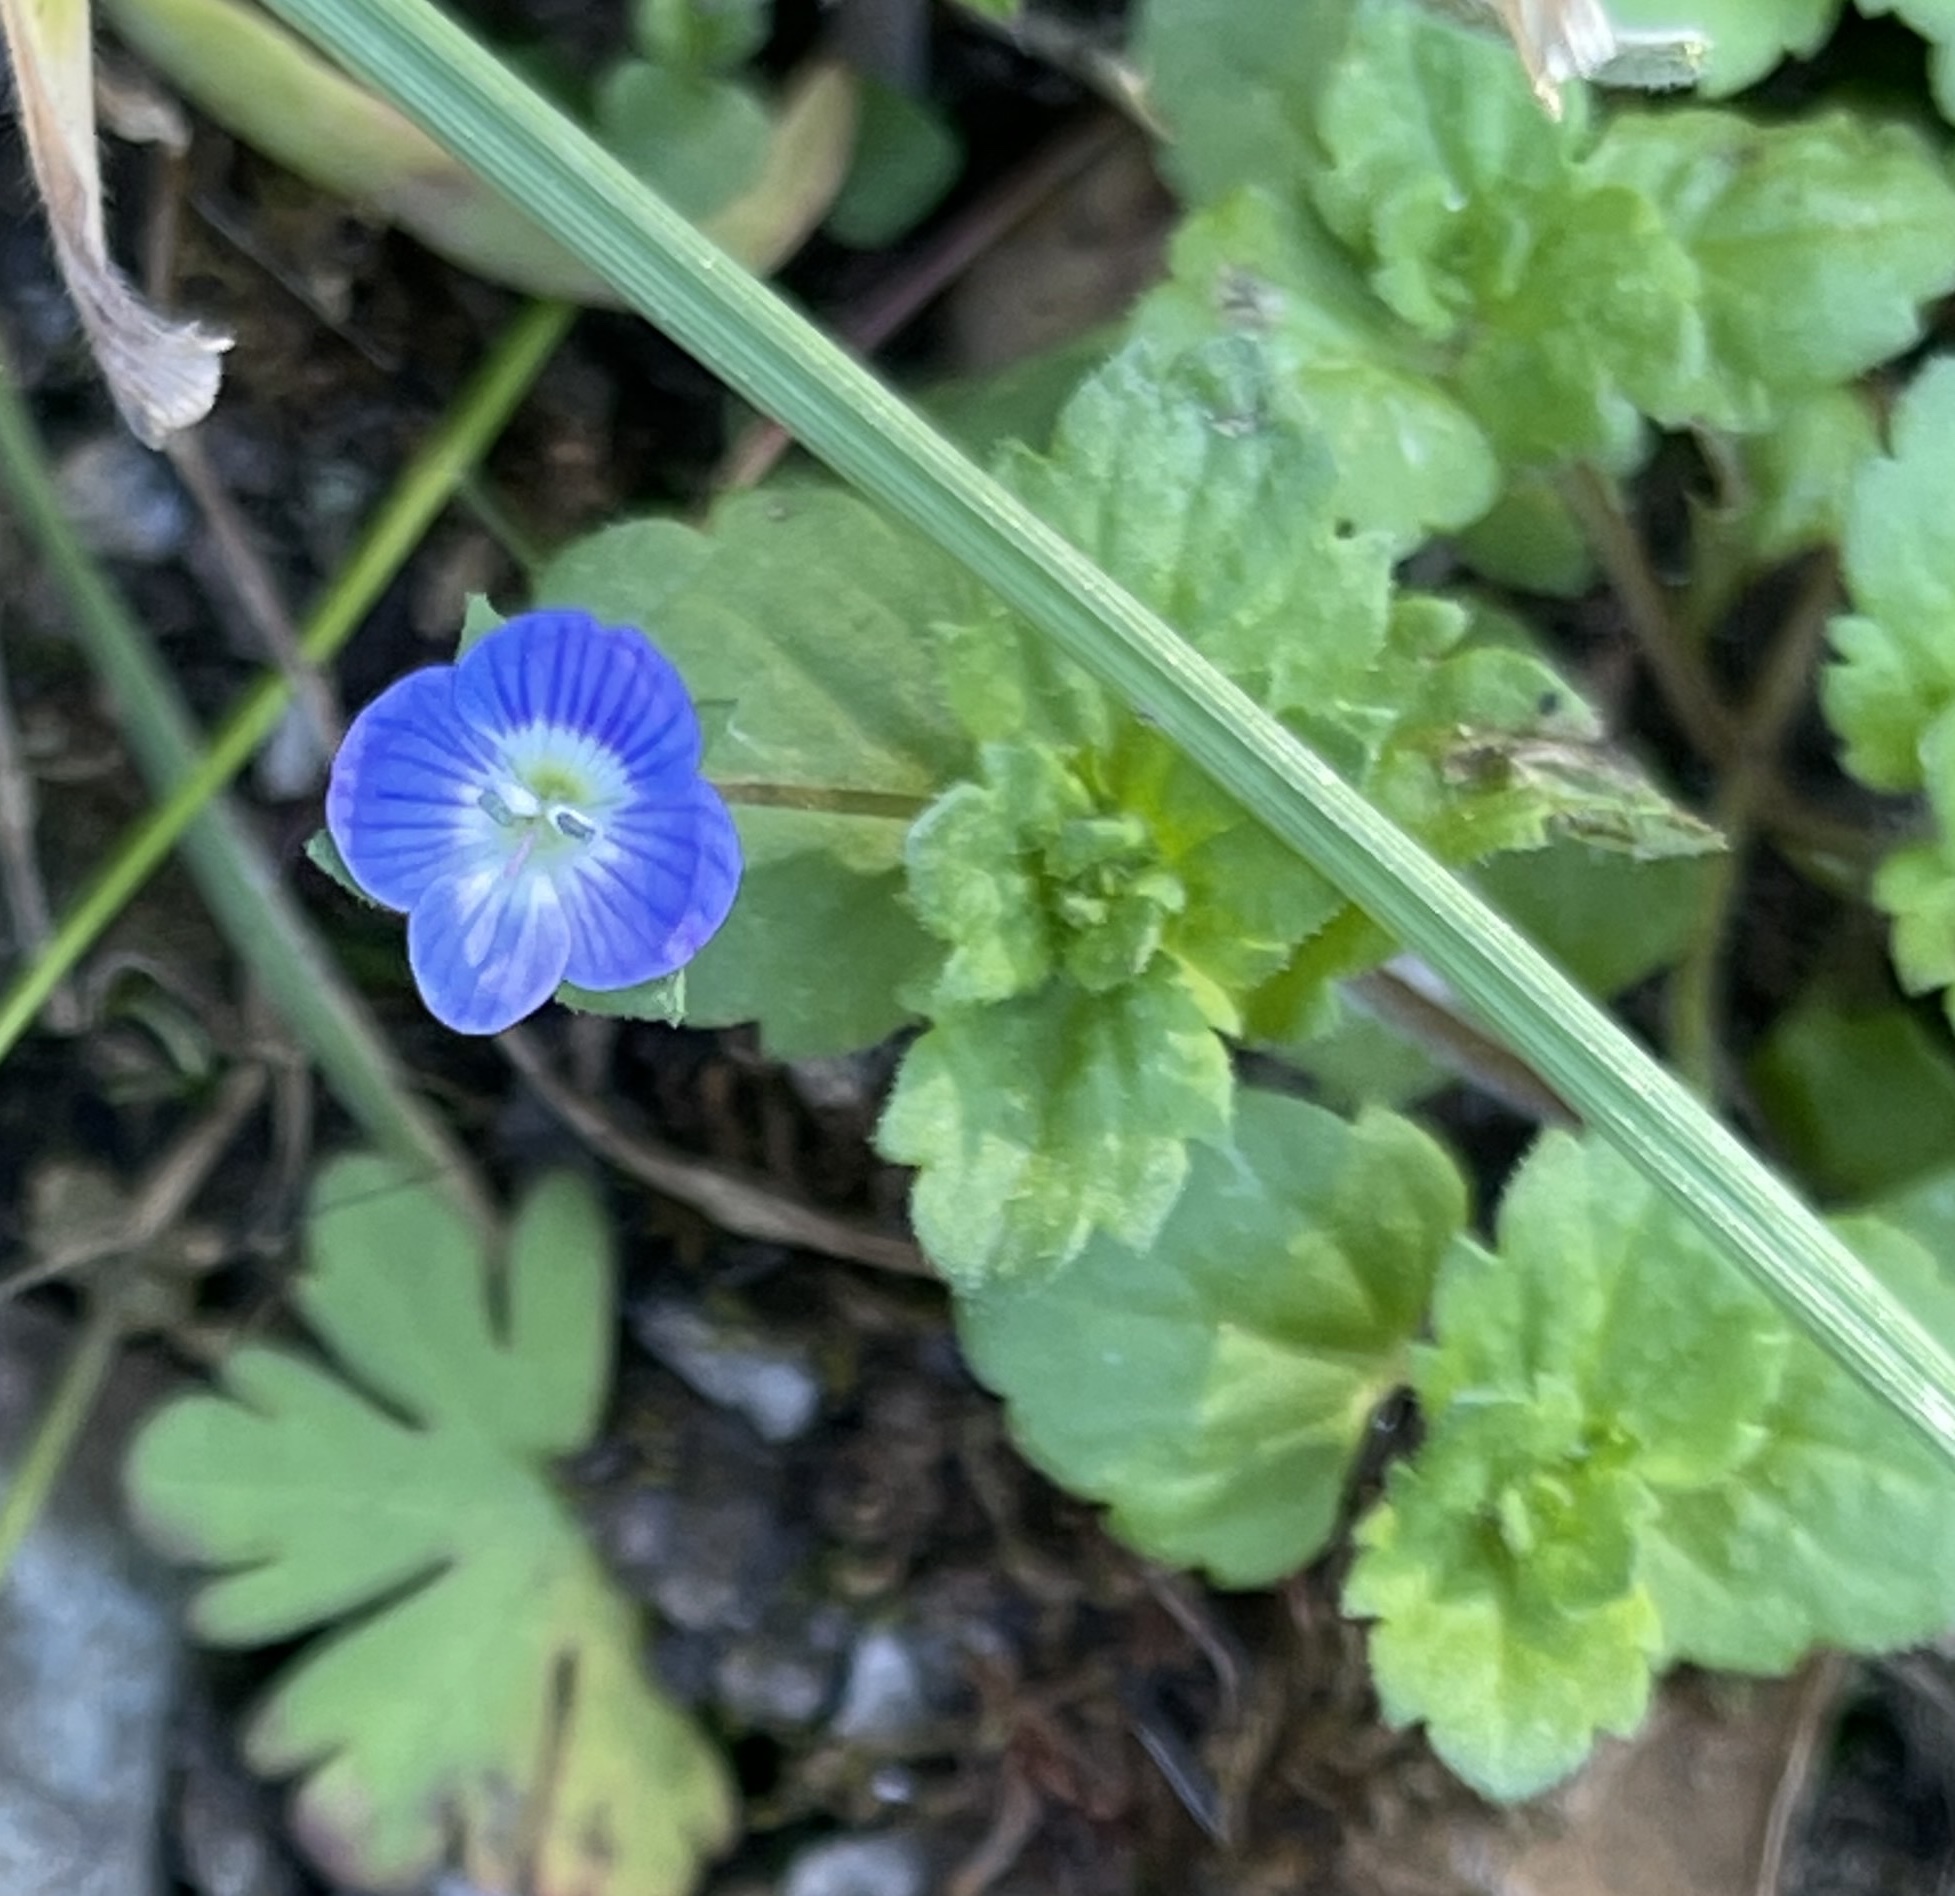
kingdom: Plantae
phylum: Tracheophyta
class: Magnoliopsida
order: Lamiales
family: Plantaginaceae
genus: Veronica
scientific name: Veronica persica
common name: Common field-speedwell
